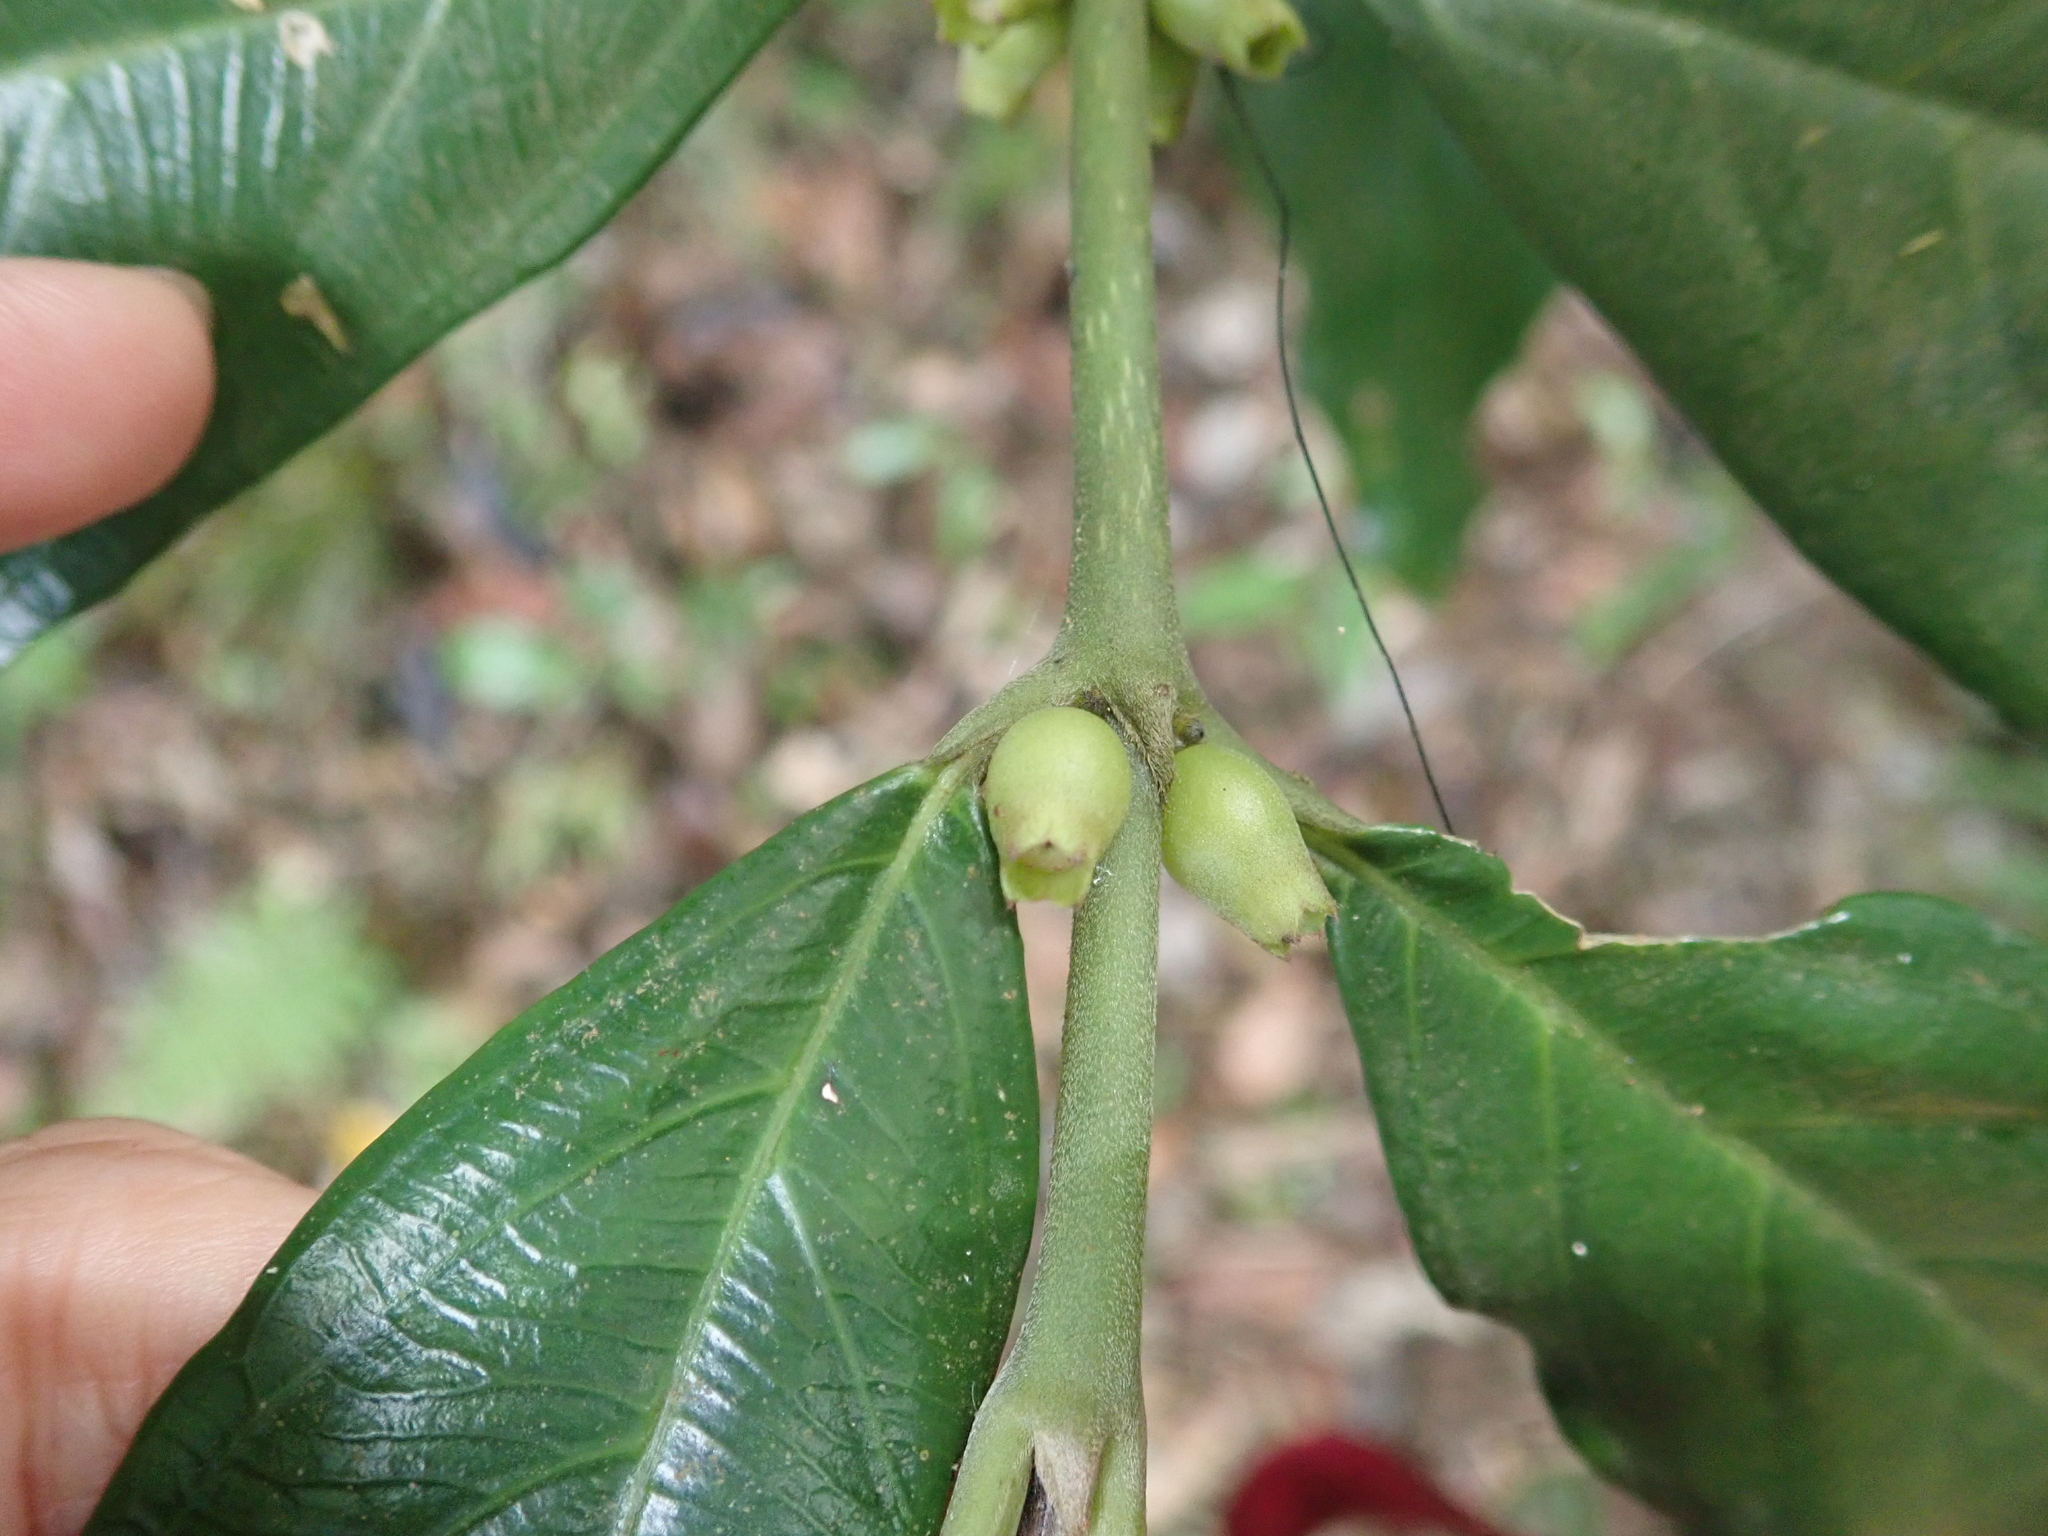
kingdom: Plantae
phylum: Tracheophyta
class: Magnoliopsida
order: Gentianales
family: Rubiaceae
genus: Lasianthus
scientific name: Lasianthus verticillatus
